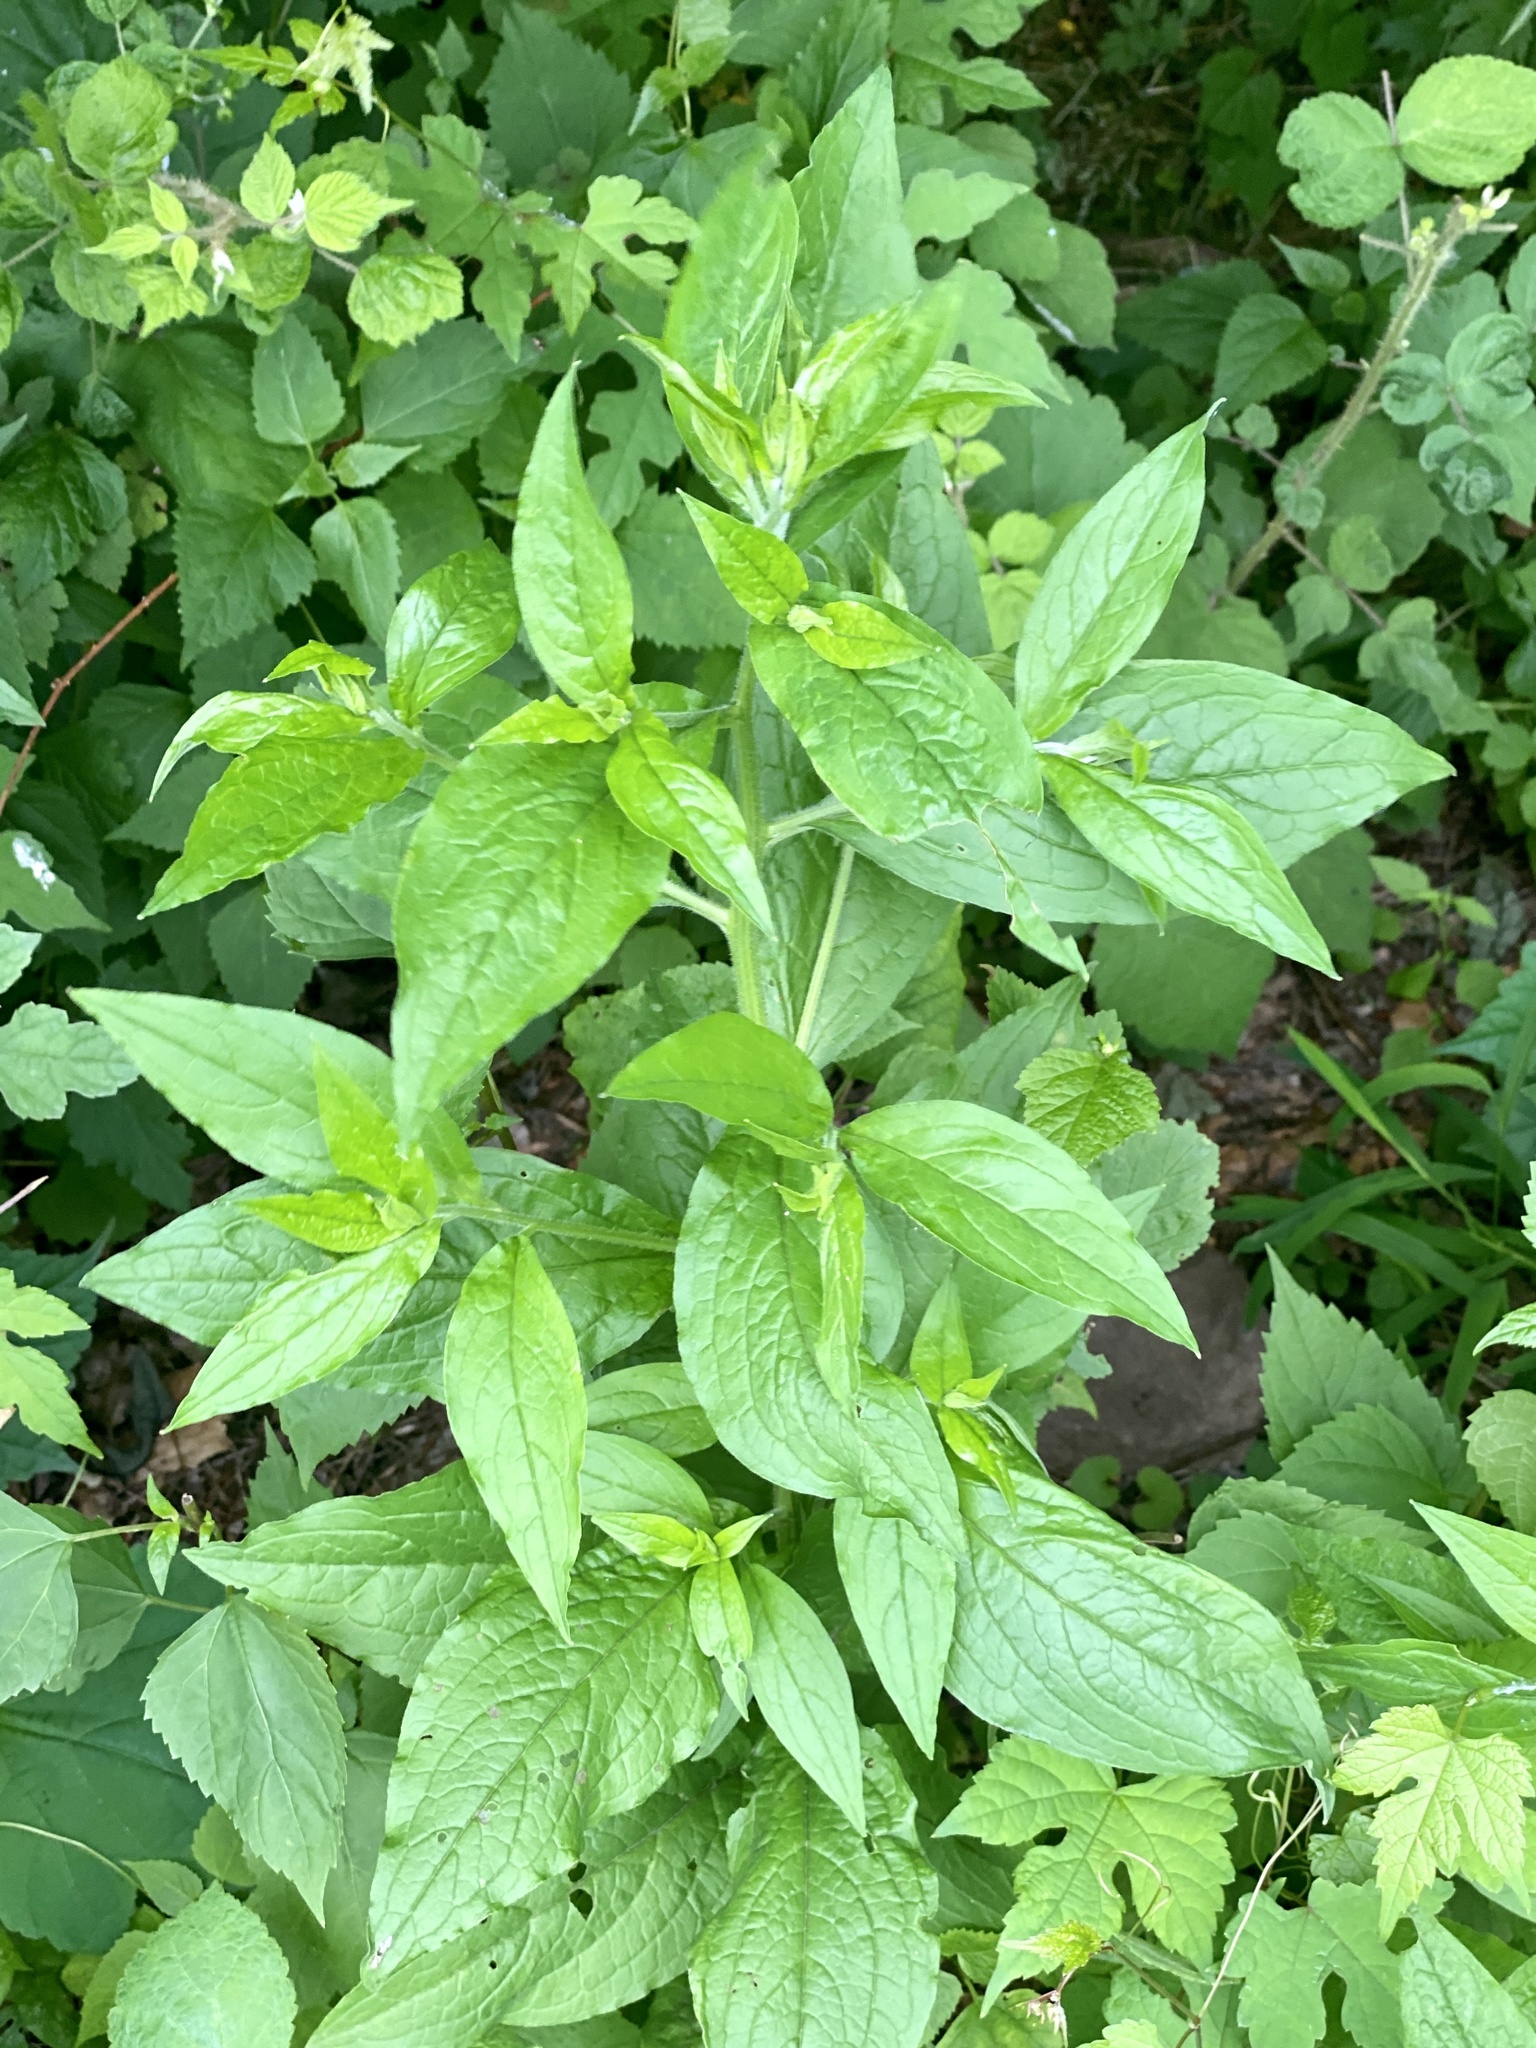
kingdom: Plantae
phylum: Tracheophyta
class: Magnoliopsida
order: Boraginales
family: Boraginaceae
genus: Hackelia
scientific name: Hackelia virginiana
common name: Beggar's-lice
